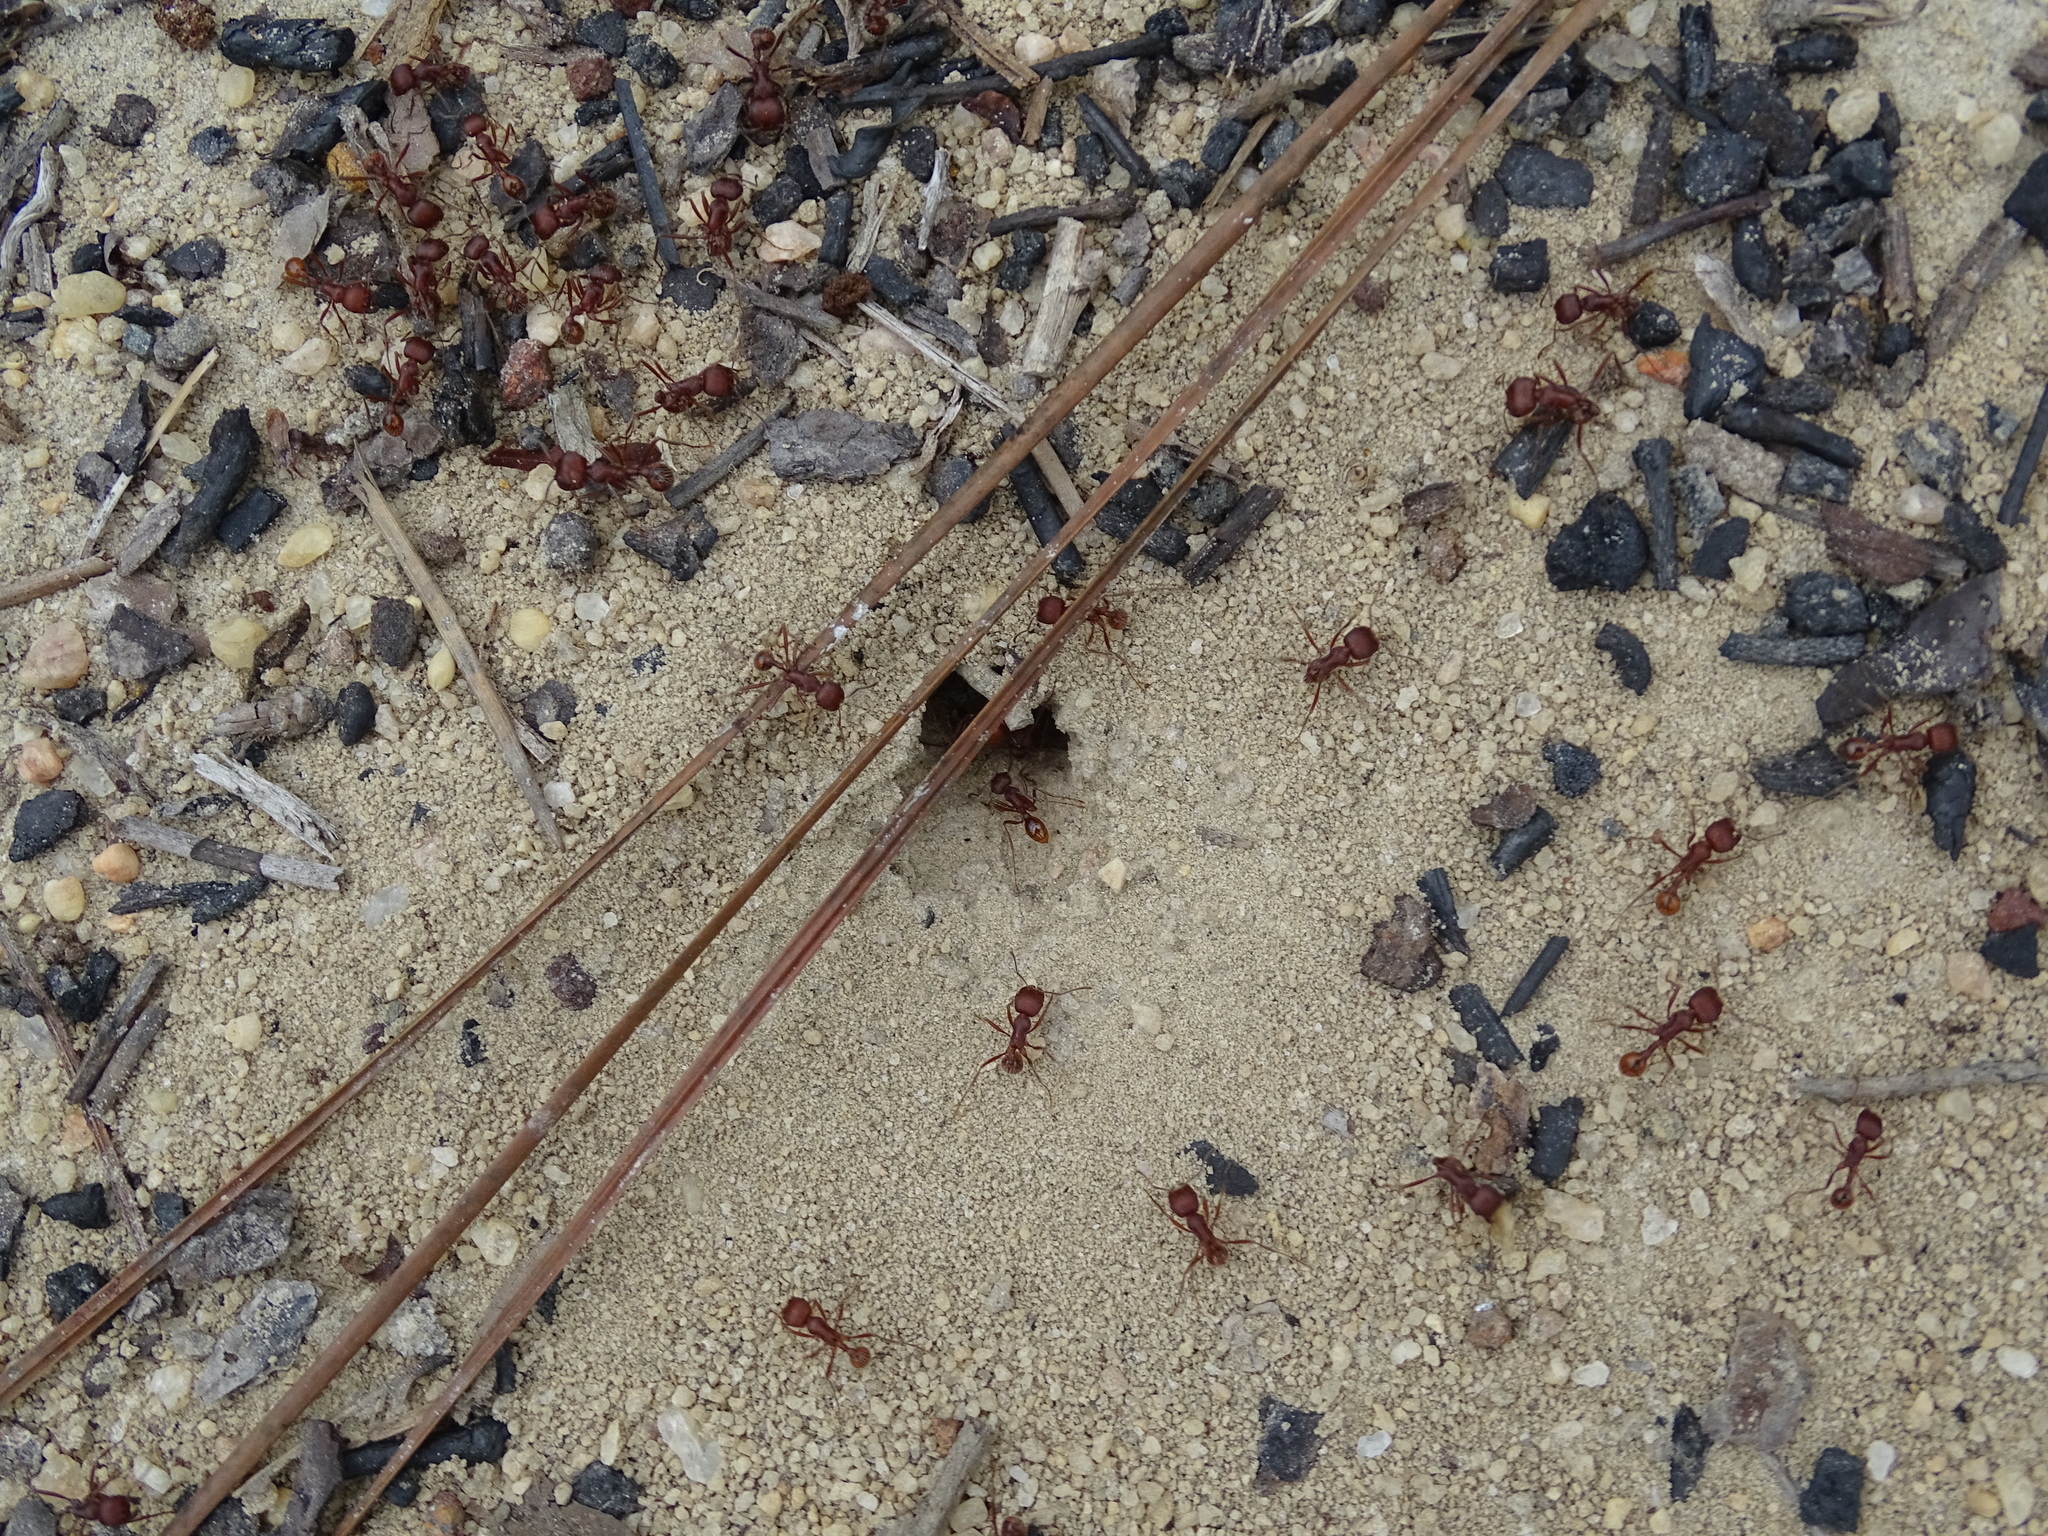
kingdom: Animalia
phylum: Arthropoda
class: Insecta
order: Hymenoptera
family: Formicidae
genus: Pogonomyrmex
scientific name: Pogonomyrmex badius
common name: Florida harvester ant
